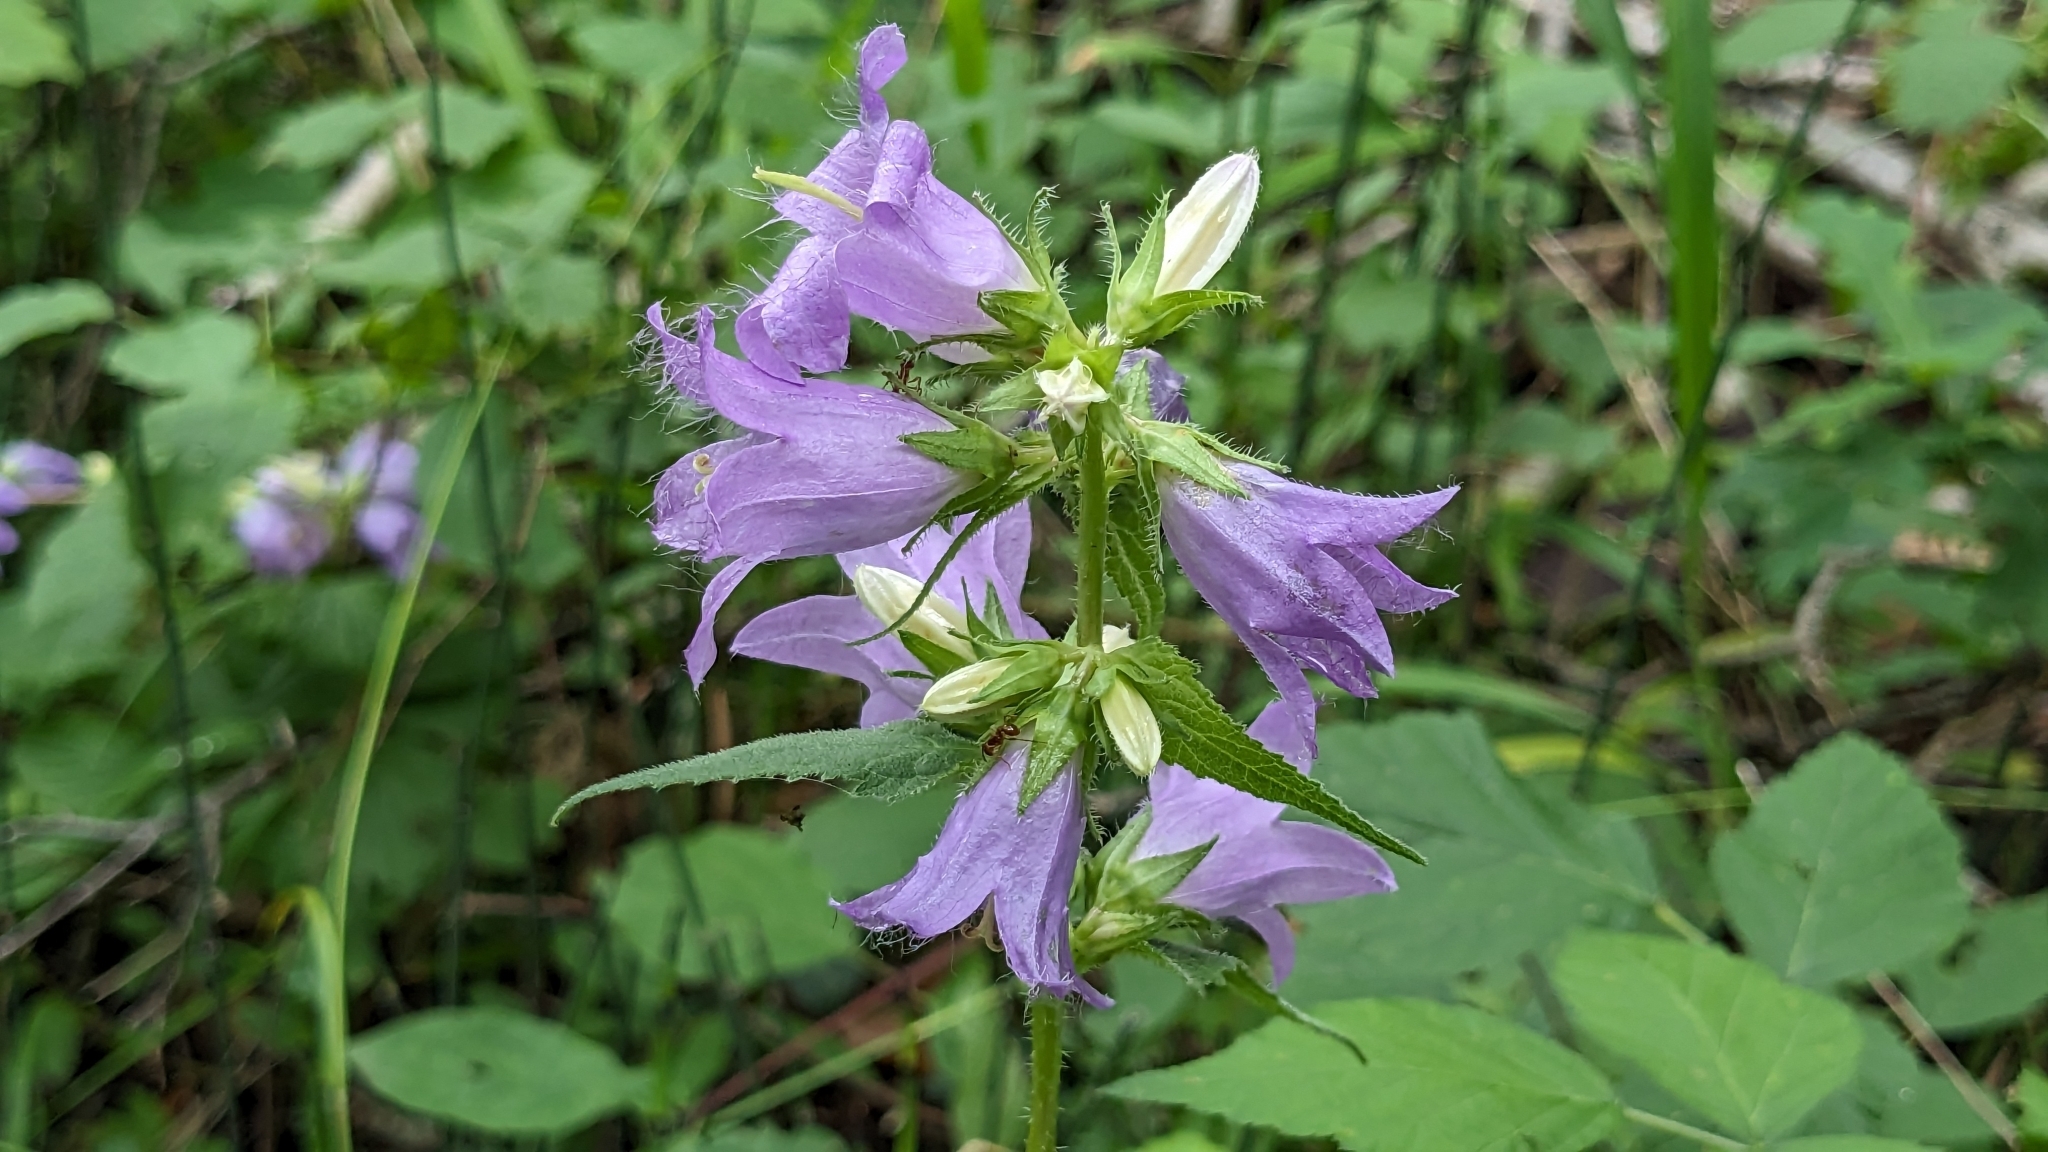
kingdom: Plantae
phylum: Tracheophyta
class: Magnoliopsida
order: Asterales
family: Campanulaceae
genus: Campanula
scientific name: Campanula trachelium
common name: Nettle-leaved bellflower
